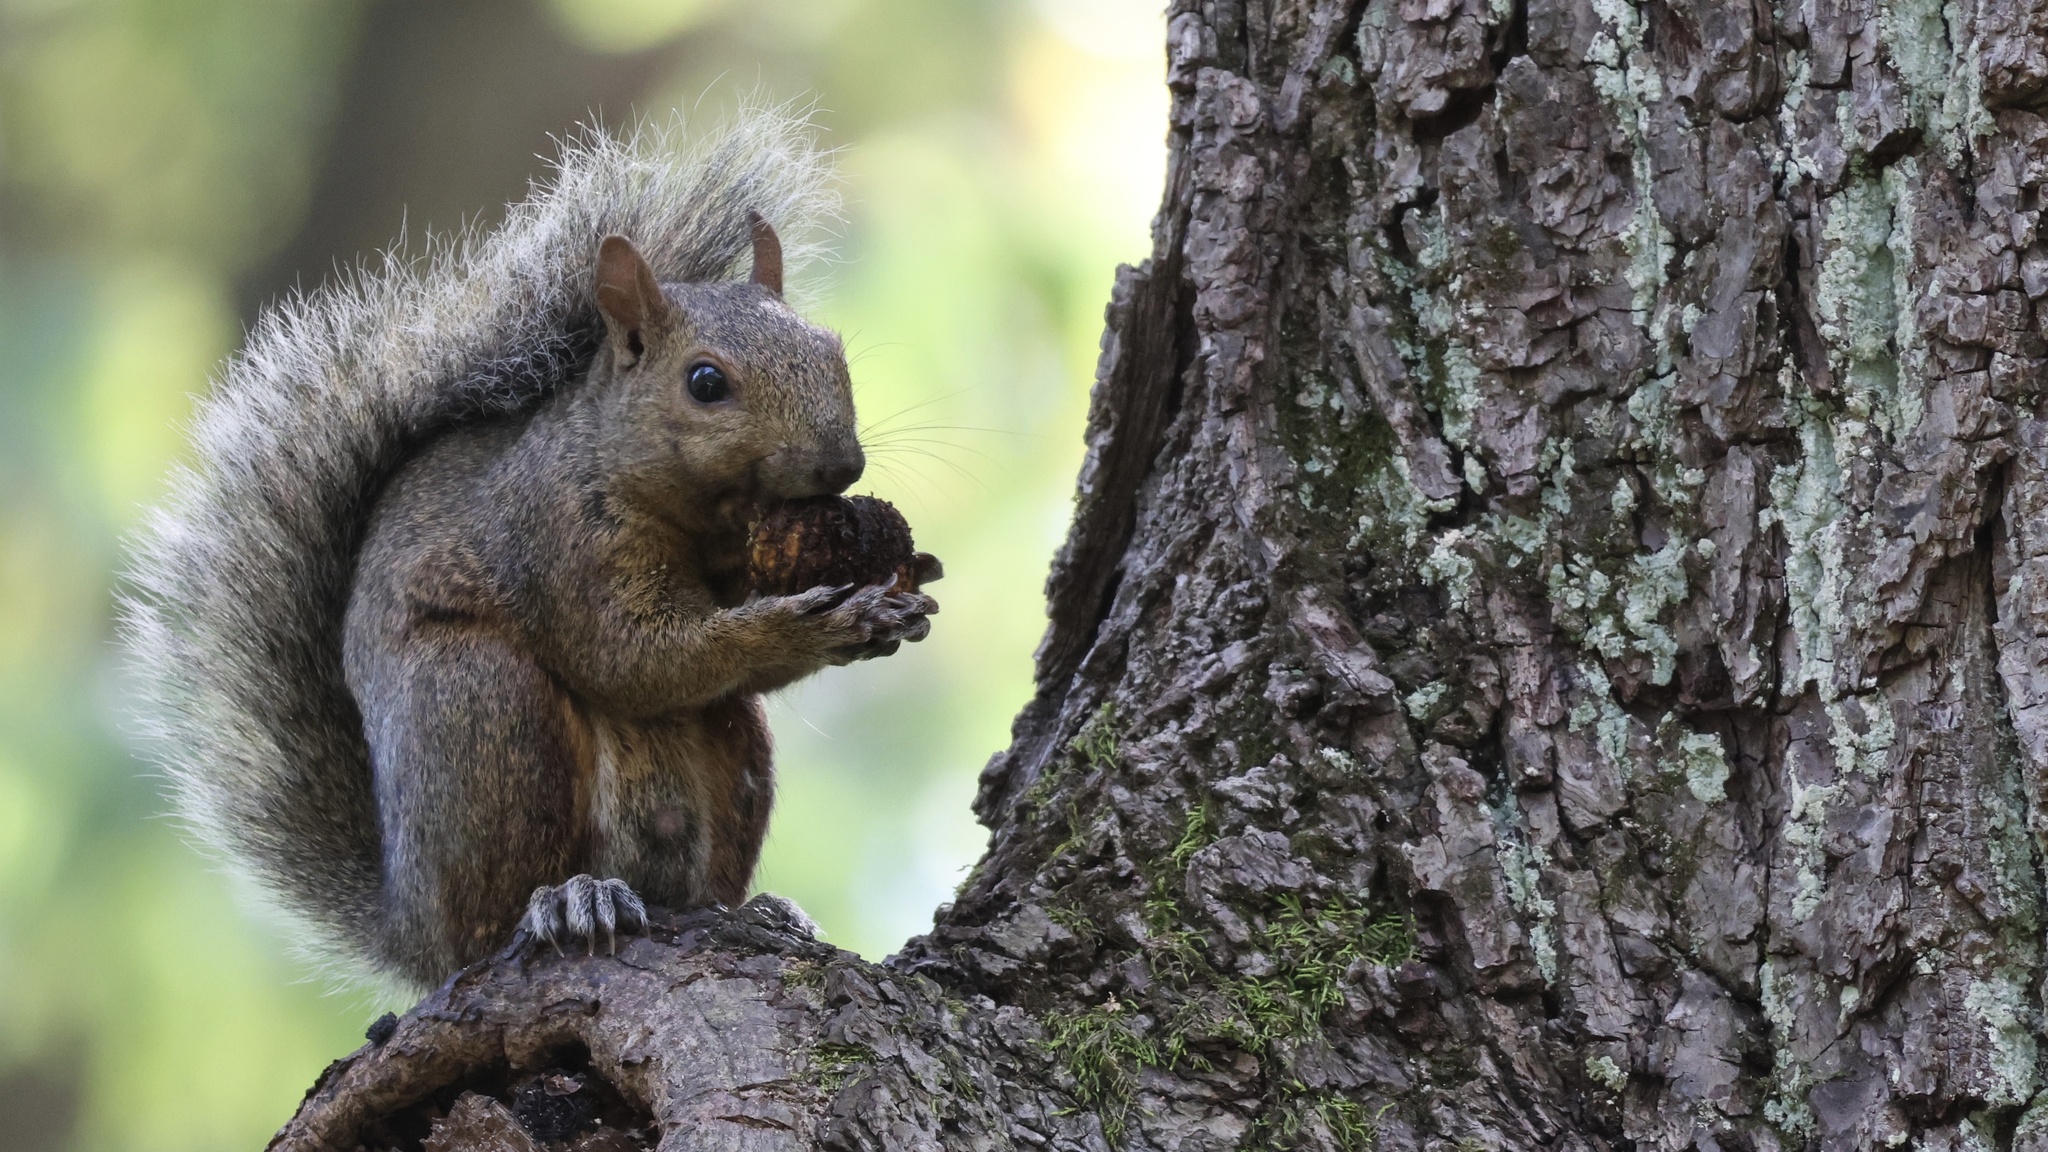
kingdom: Animalia
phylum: Chordata
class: Mammalia
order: Rodentia
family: Sciuridae
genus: Sciurus
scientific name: Sciurus carolinensis
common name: Eastern gray squirrel
